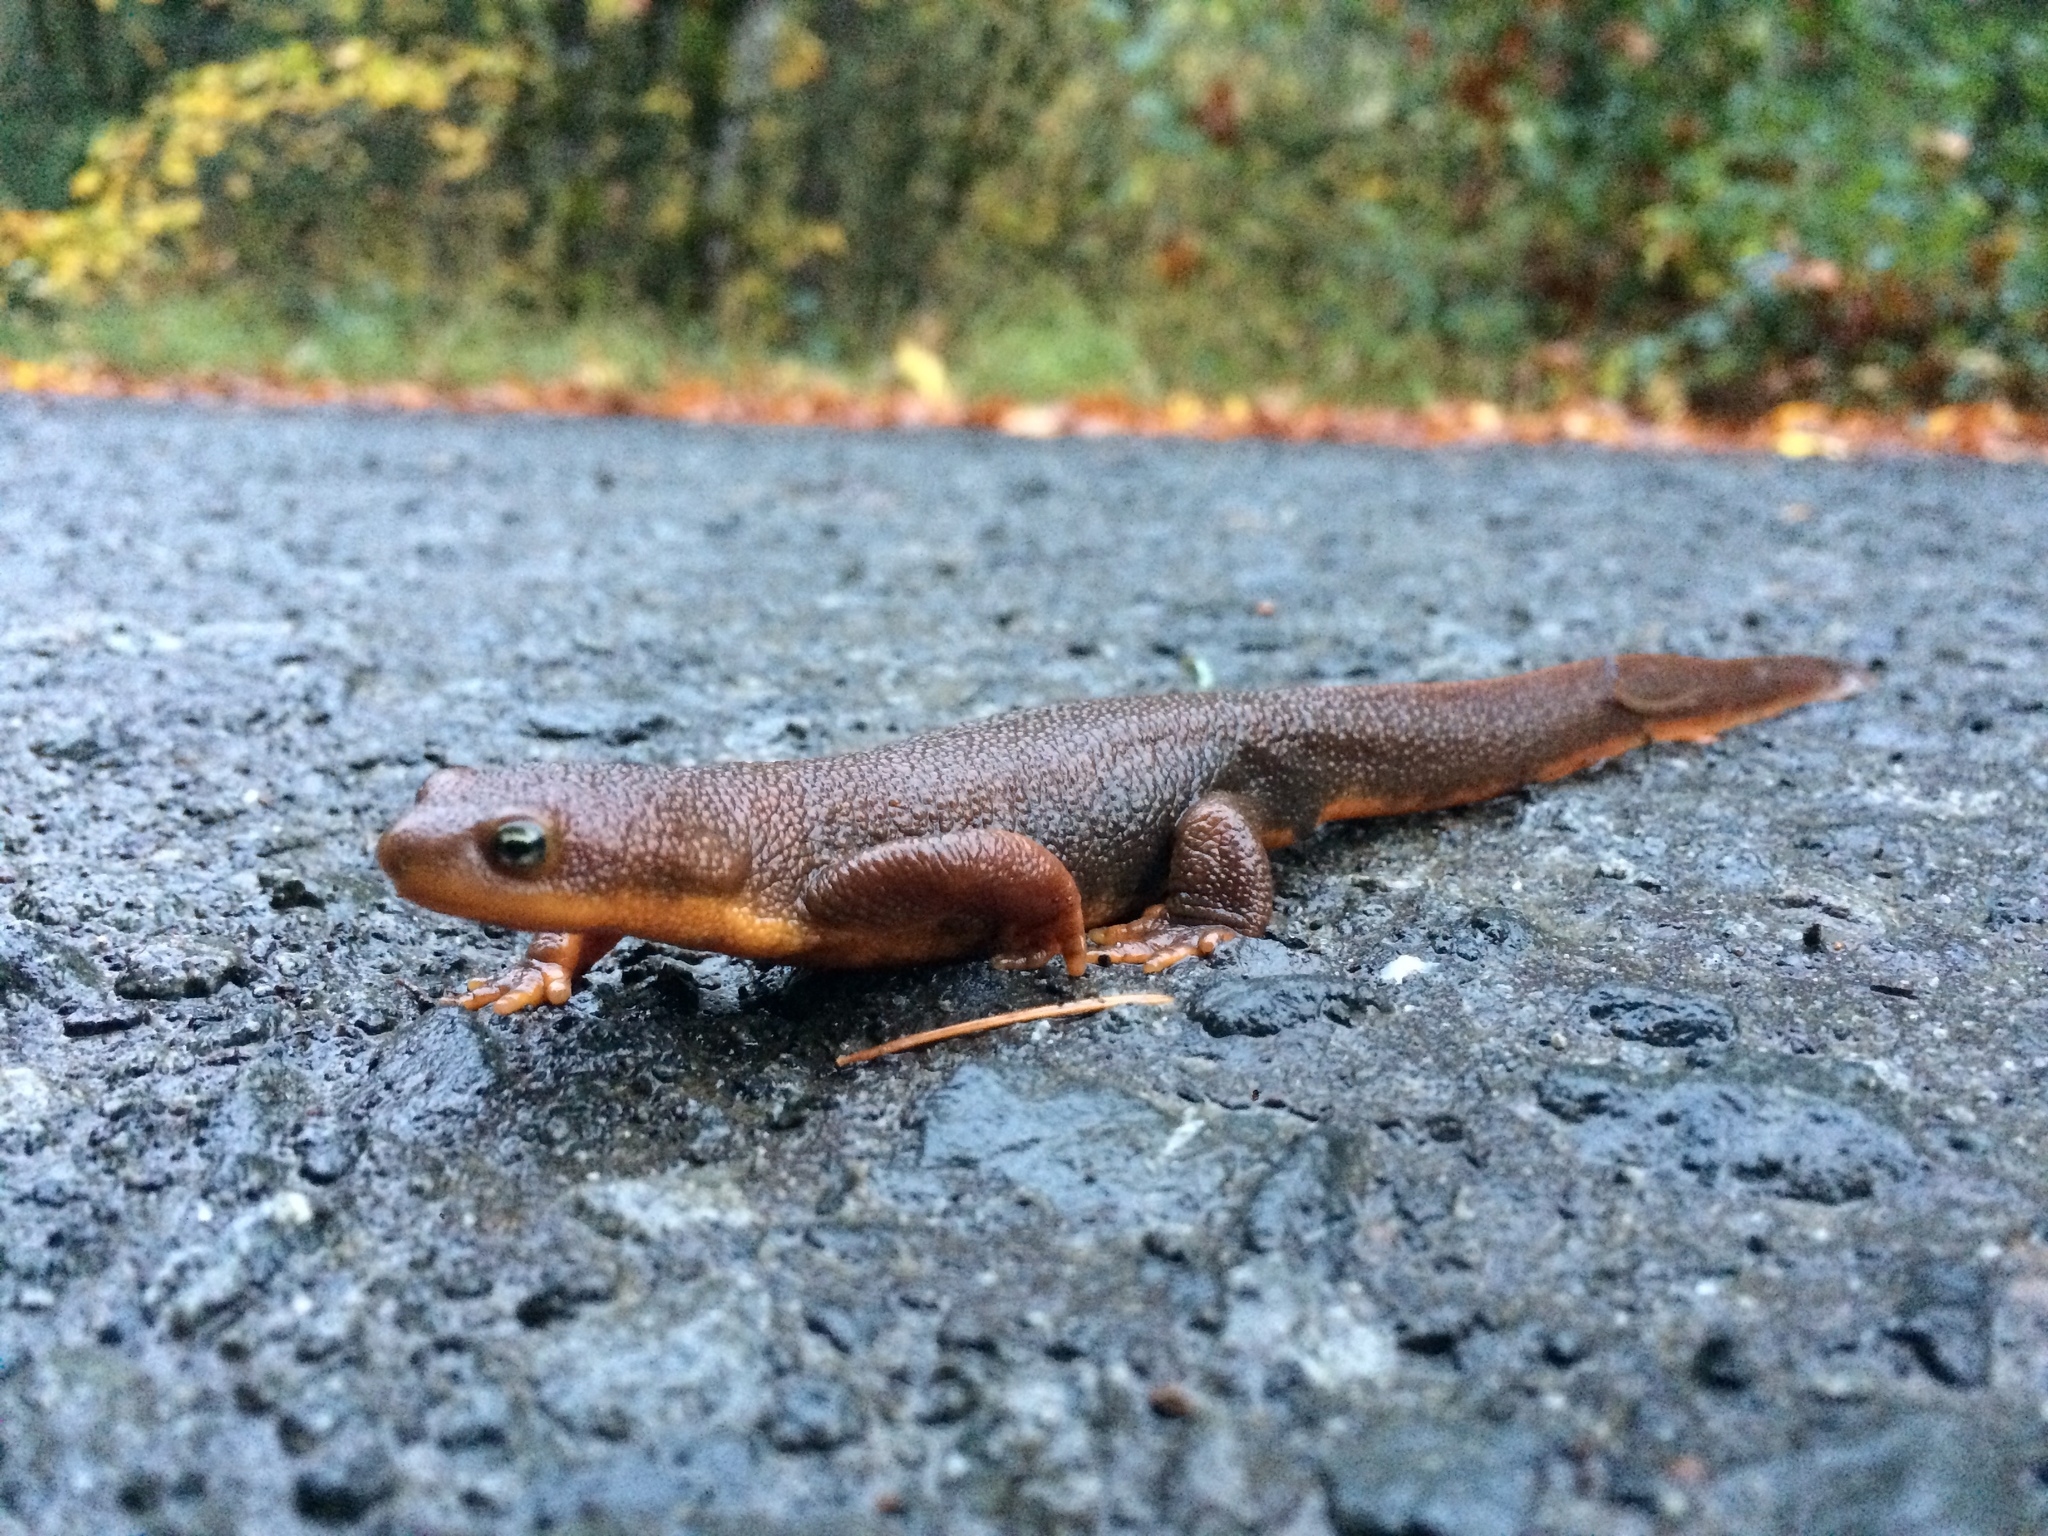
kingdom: Animalia
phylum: Chordata
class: Amphibia
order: Caudata
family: Salamandridae
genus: Taricha
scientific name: Taricha granulosa
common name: Roughskin newt
